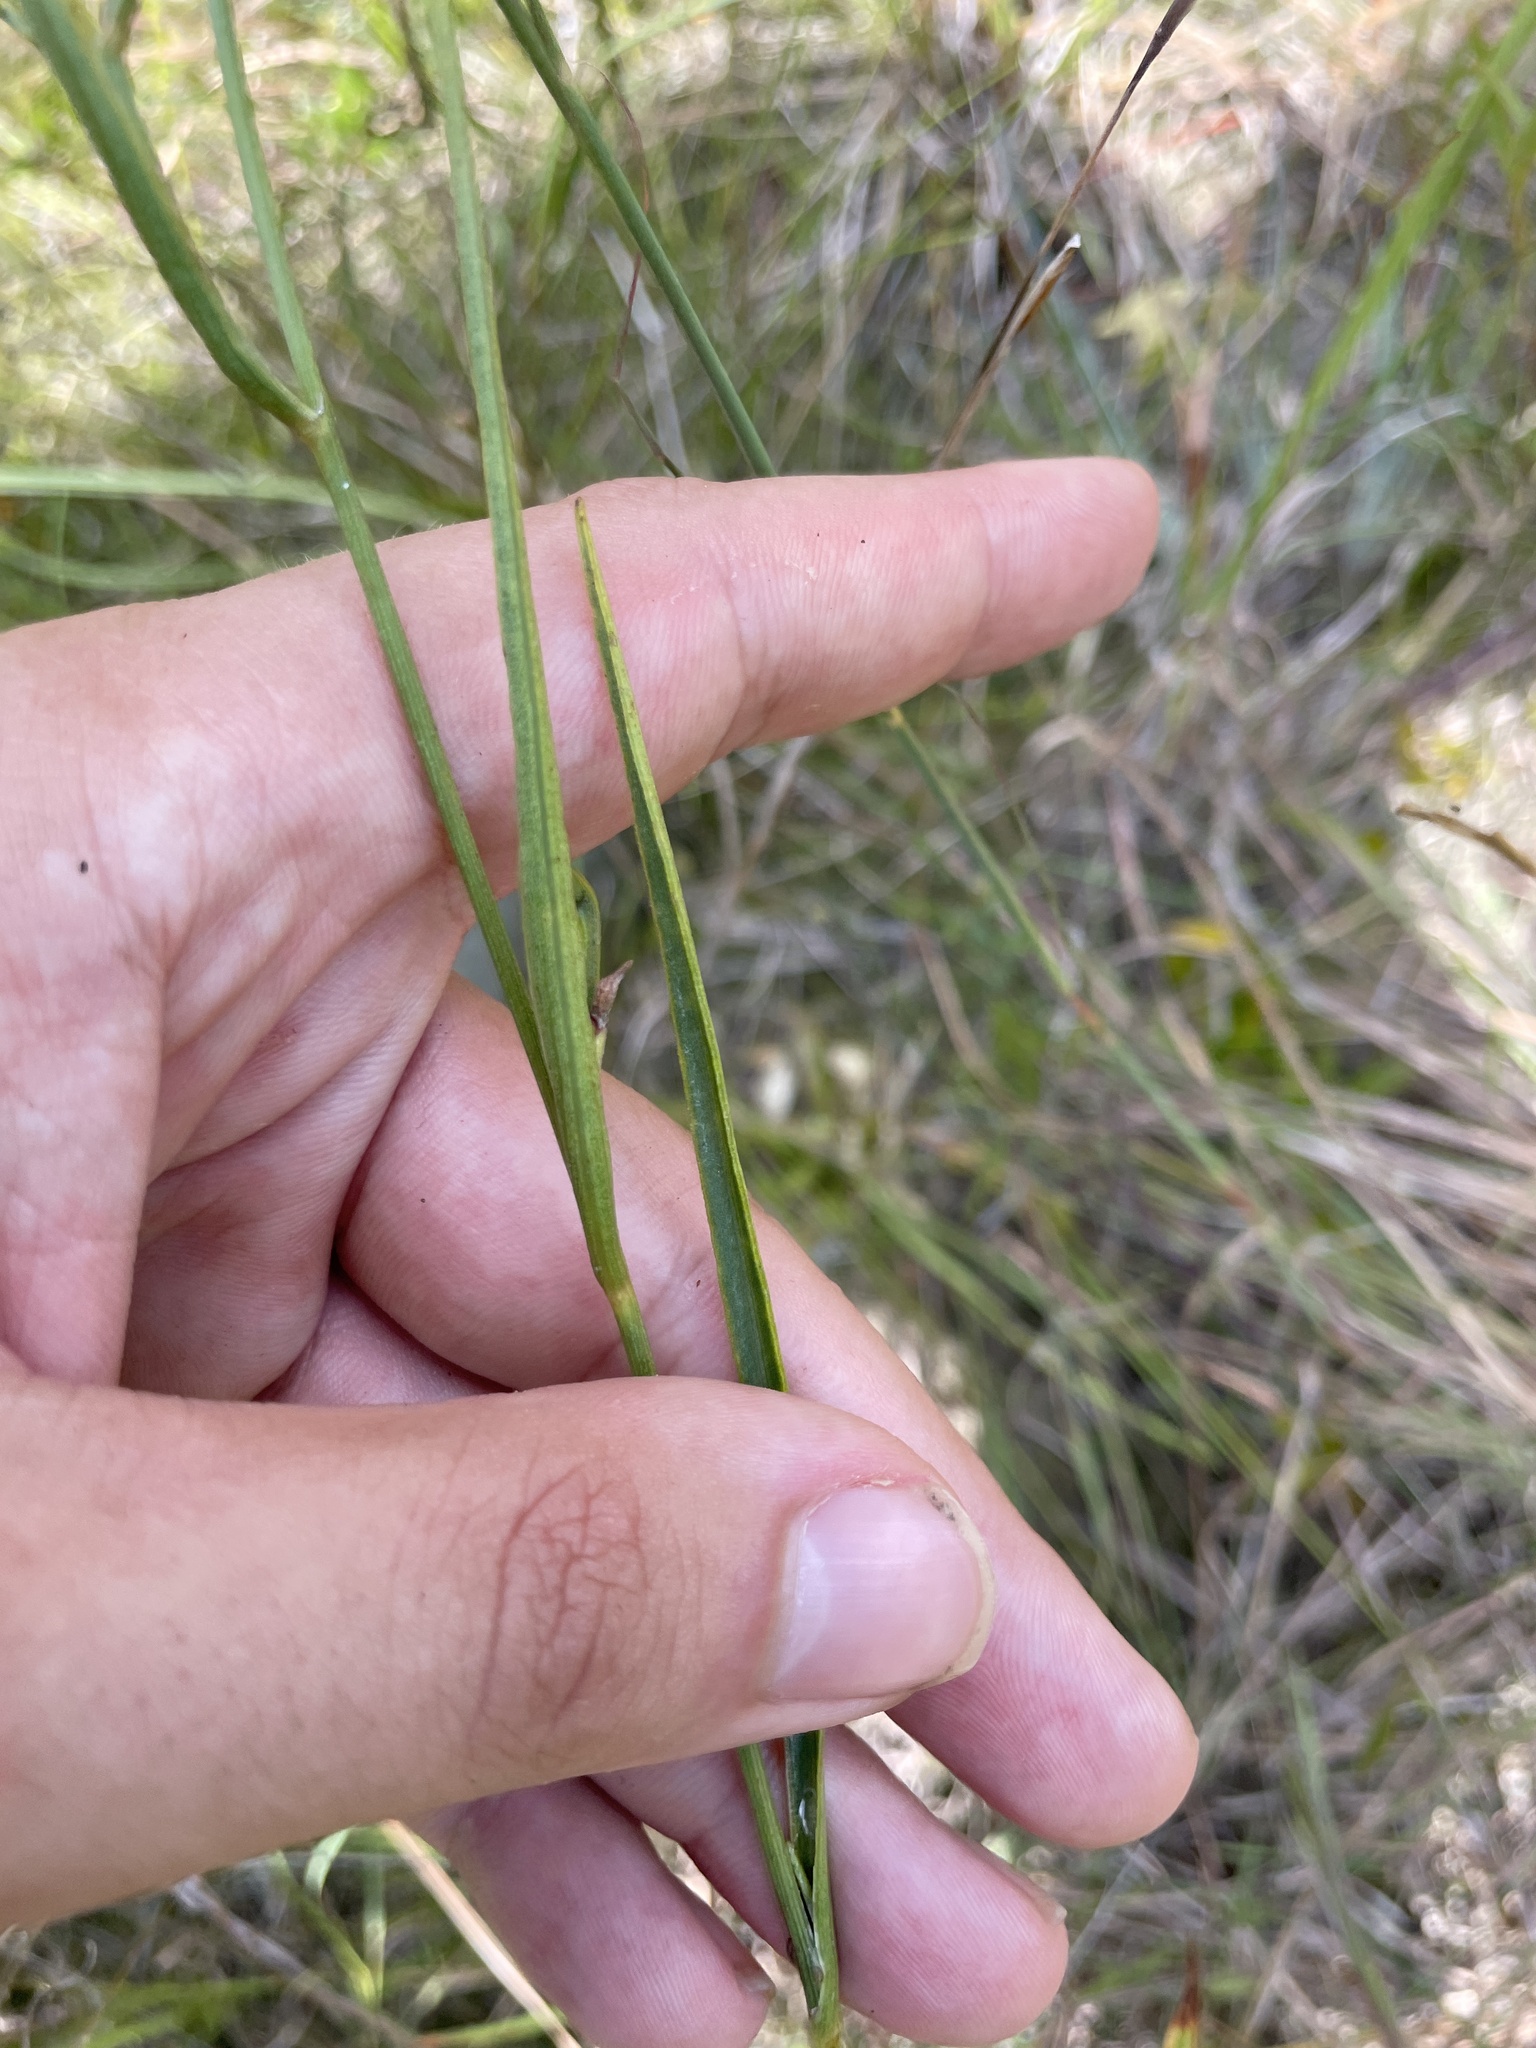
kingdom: Plantae
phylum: Tracheophyta
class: Magnoliopsida
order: Asterales
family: Asteraceae
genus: Coreopsis
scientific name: Coreopsis aristulata
